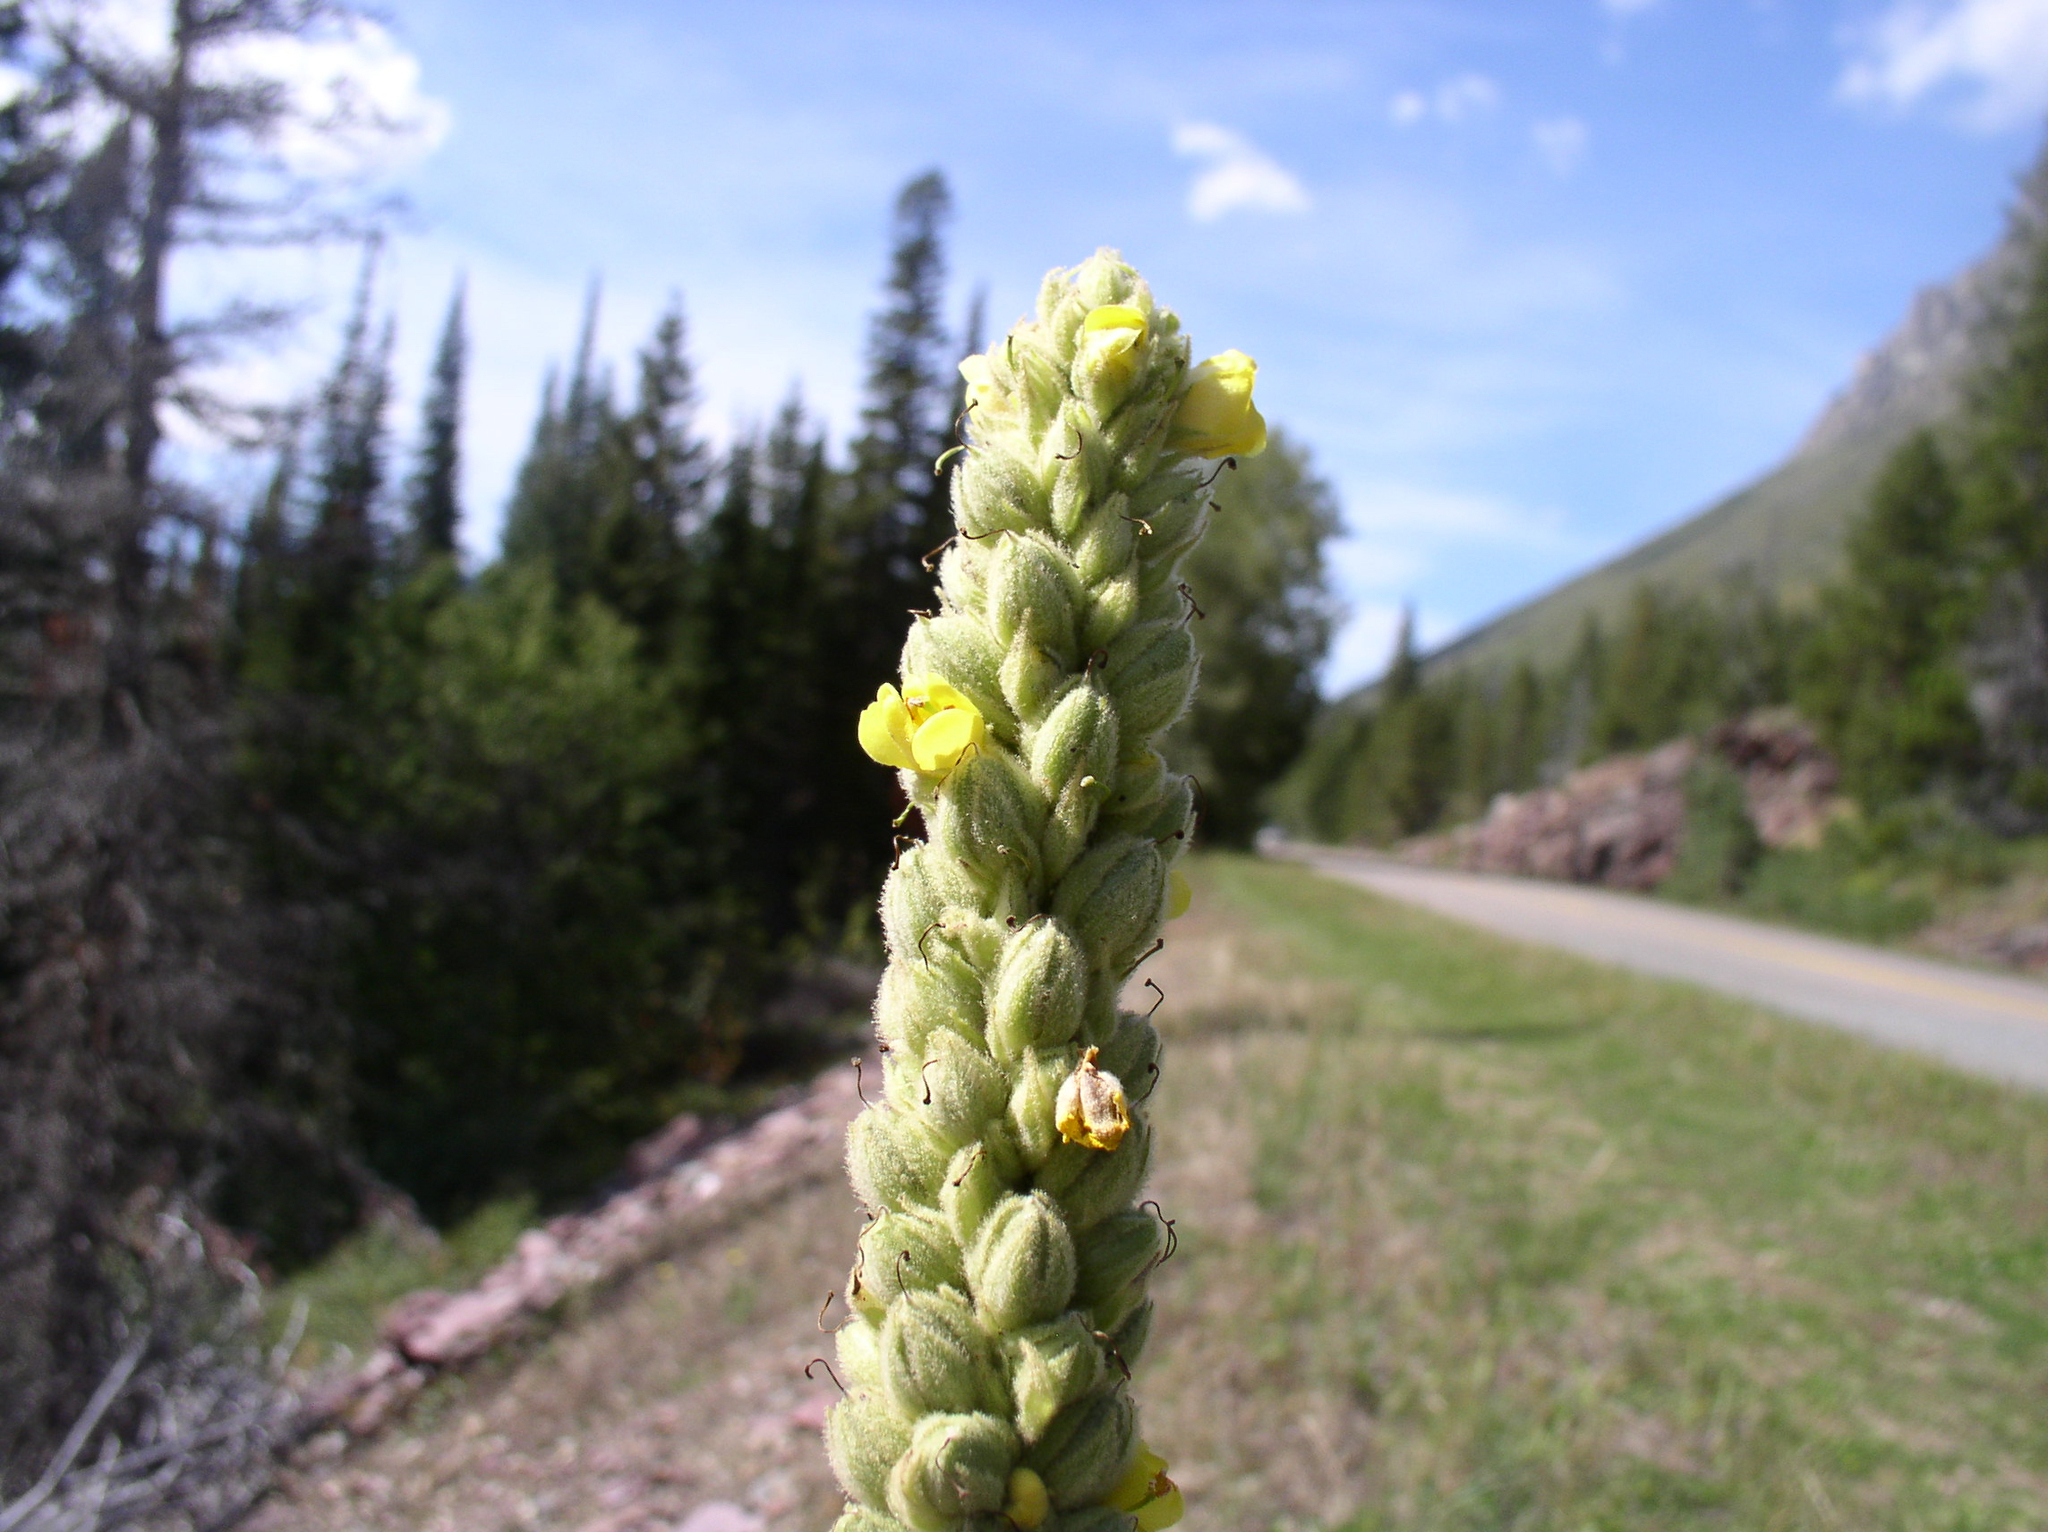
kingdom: Plantae
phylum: Tracheophyta
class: Magnoliopsida
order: Lamiales
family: Scrophulariaceae
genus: Verbascum
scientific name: Verbascum thapsus
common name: Common mullein
